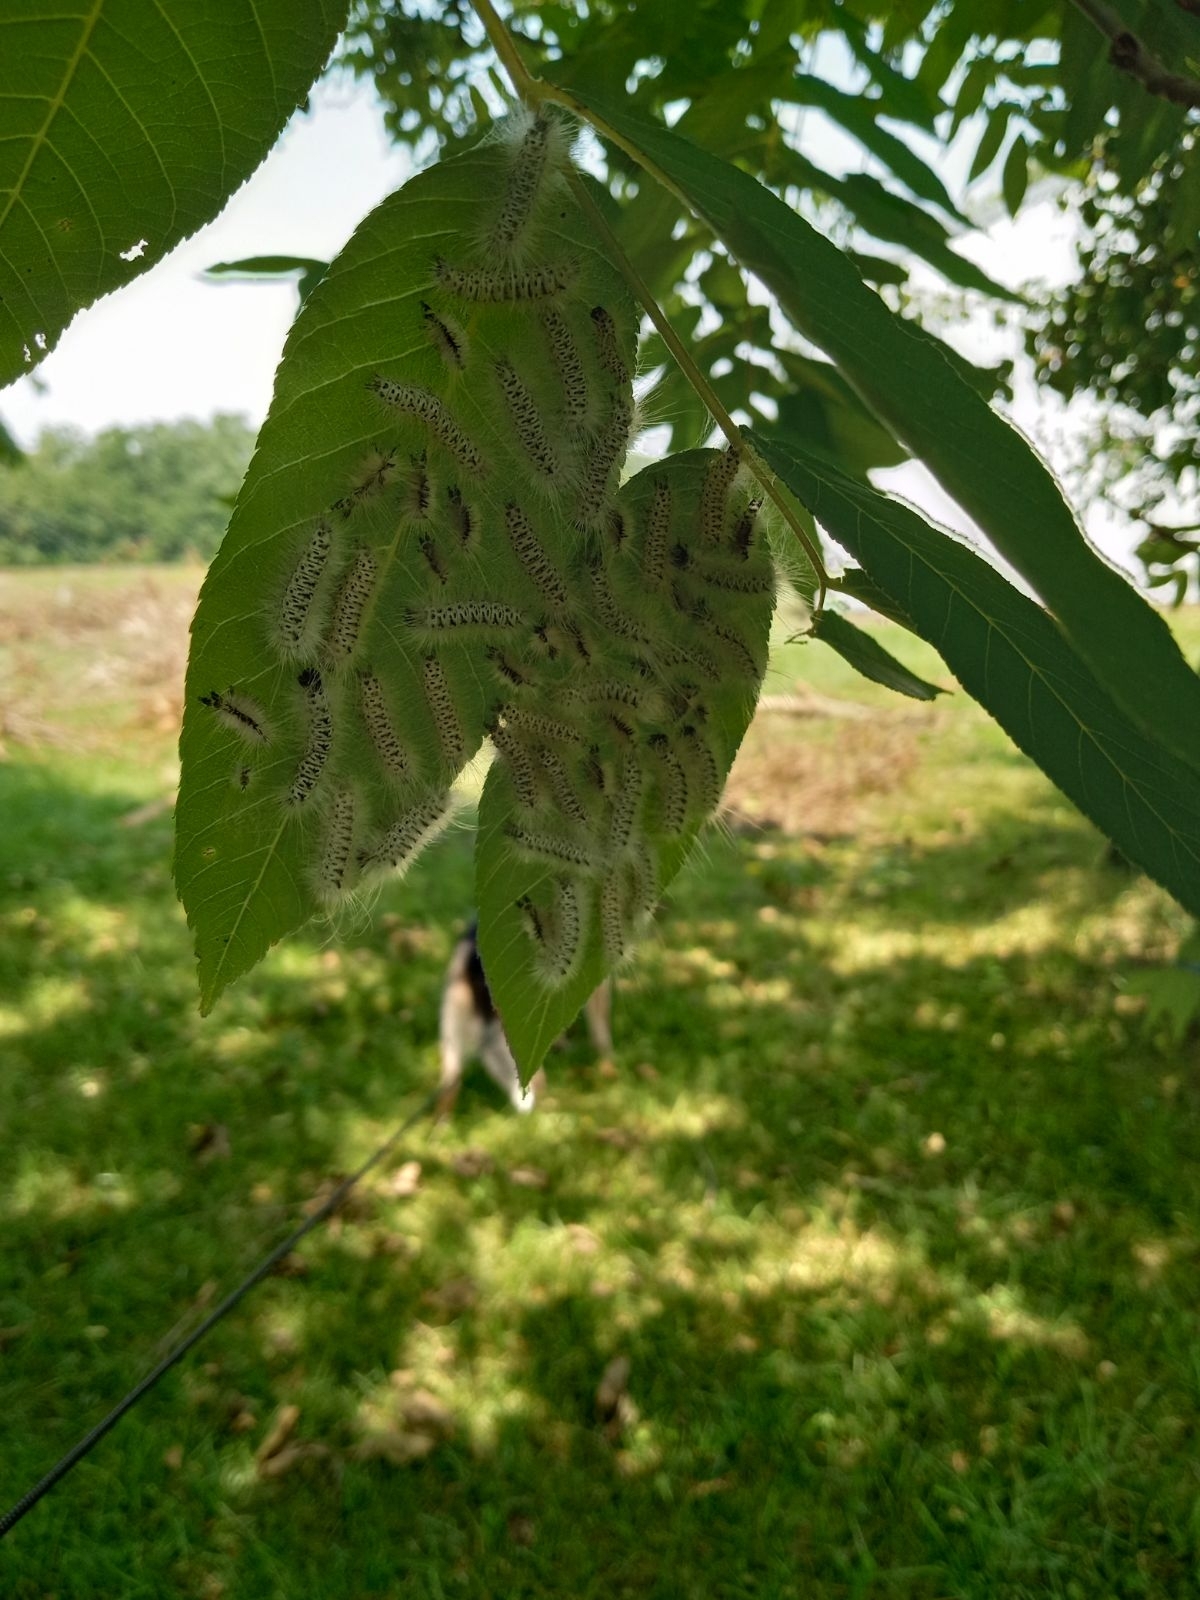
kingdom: Animalia
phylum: Arthropoda
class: Insecta
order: Lepidoptera
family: Erebidae
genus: Hyphantria
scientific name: Hyphantria cunea
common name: American white moth
